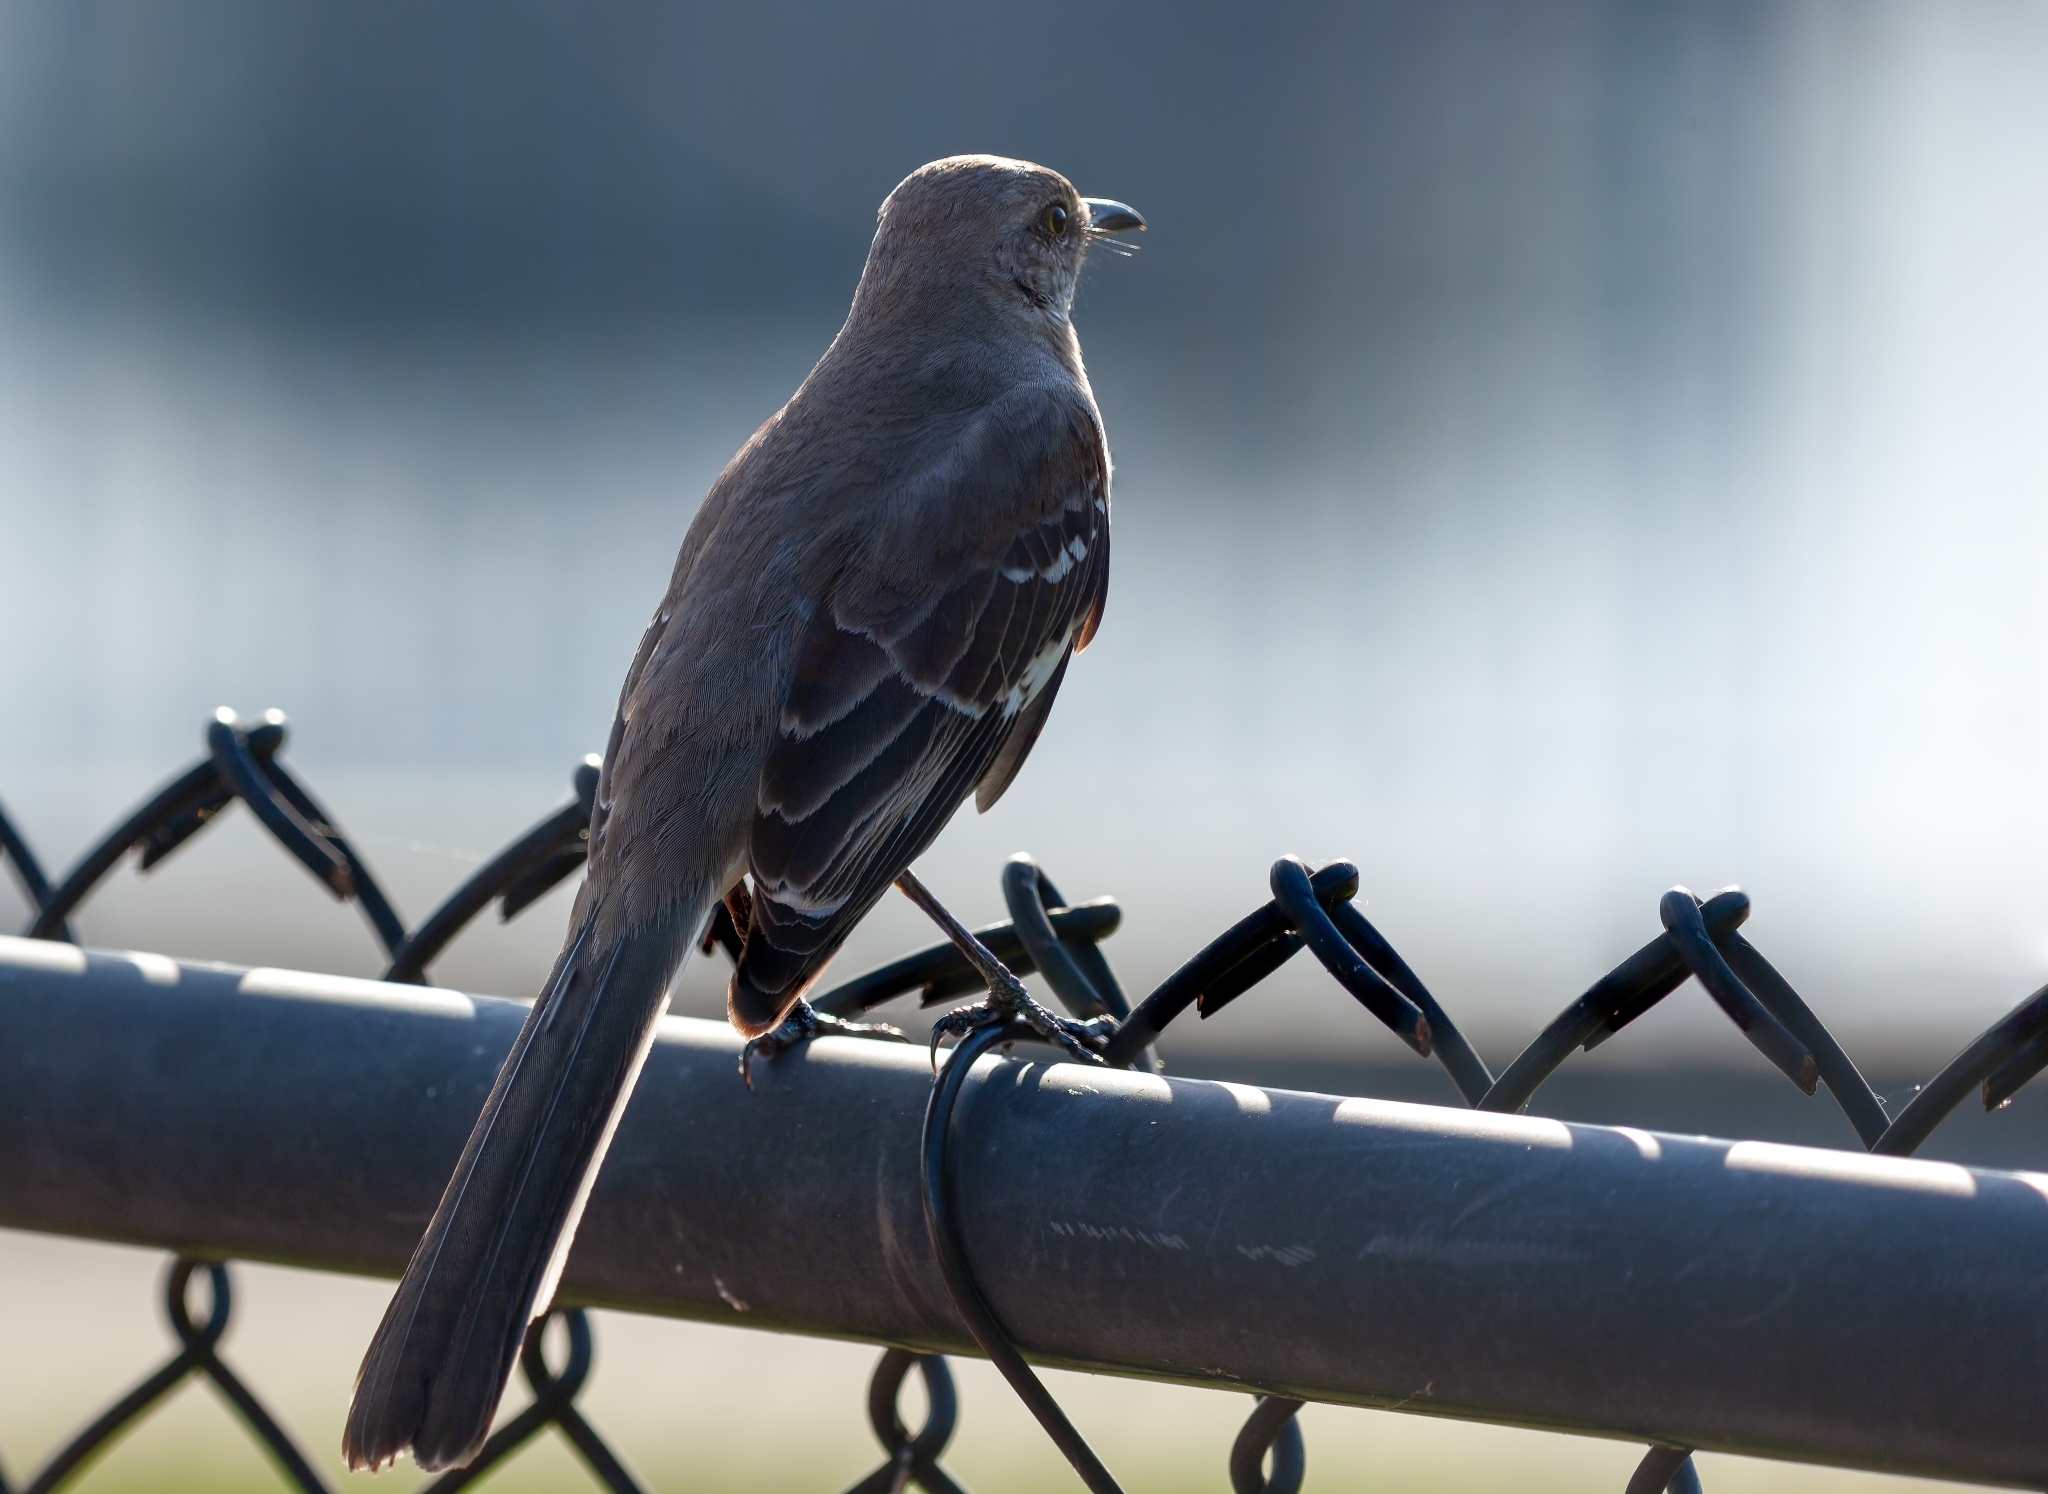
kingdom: Animalia
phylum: Chordata
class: Aves
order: Passeriformes
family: Mimidae
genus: Mimus
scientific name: Mimus polyglottos
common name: Northern mockingbird
